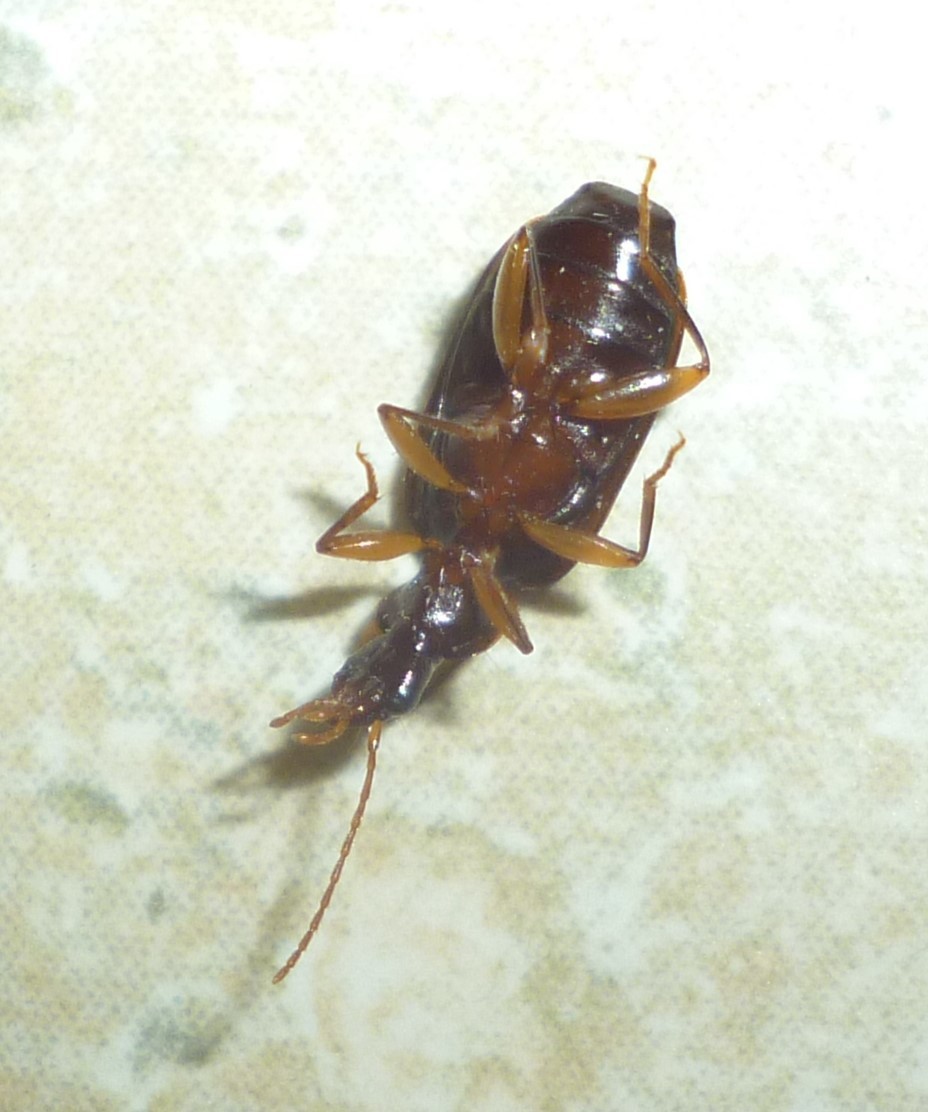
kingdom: Animalia
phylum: Arthropoda
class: Insecta
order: Coleoptera
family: Carabidae
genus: Dromius
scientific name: Dromius piceus
